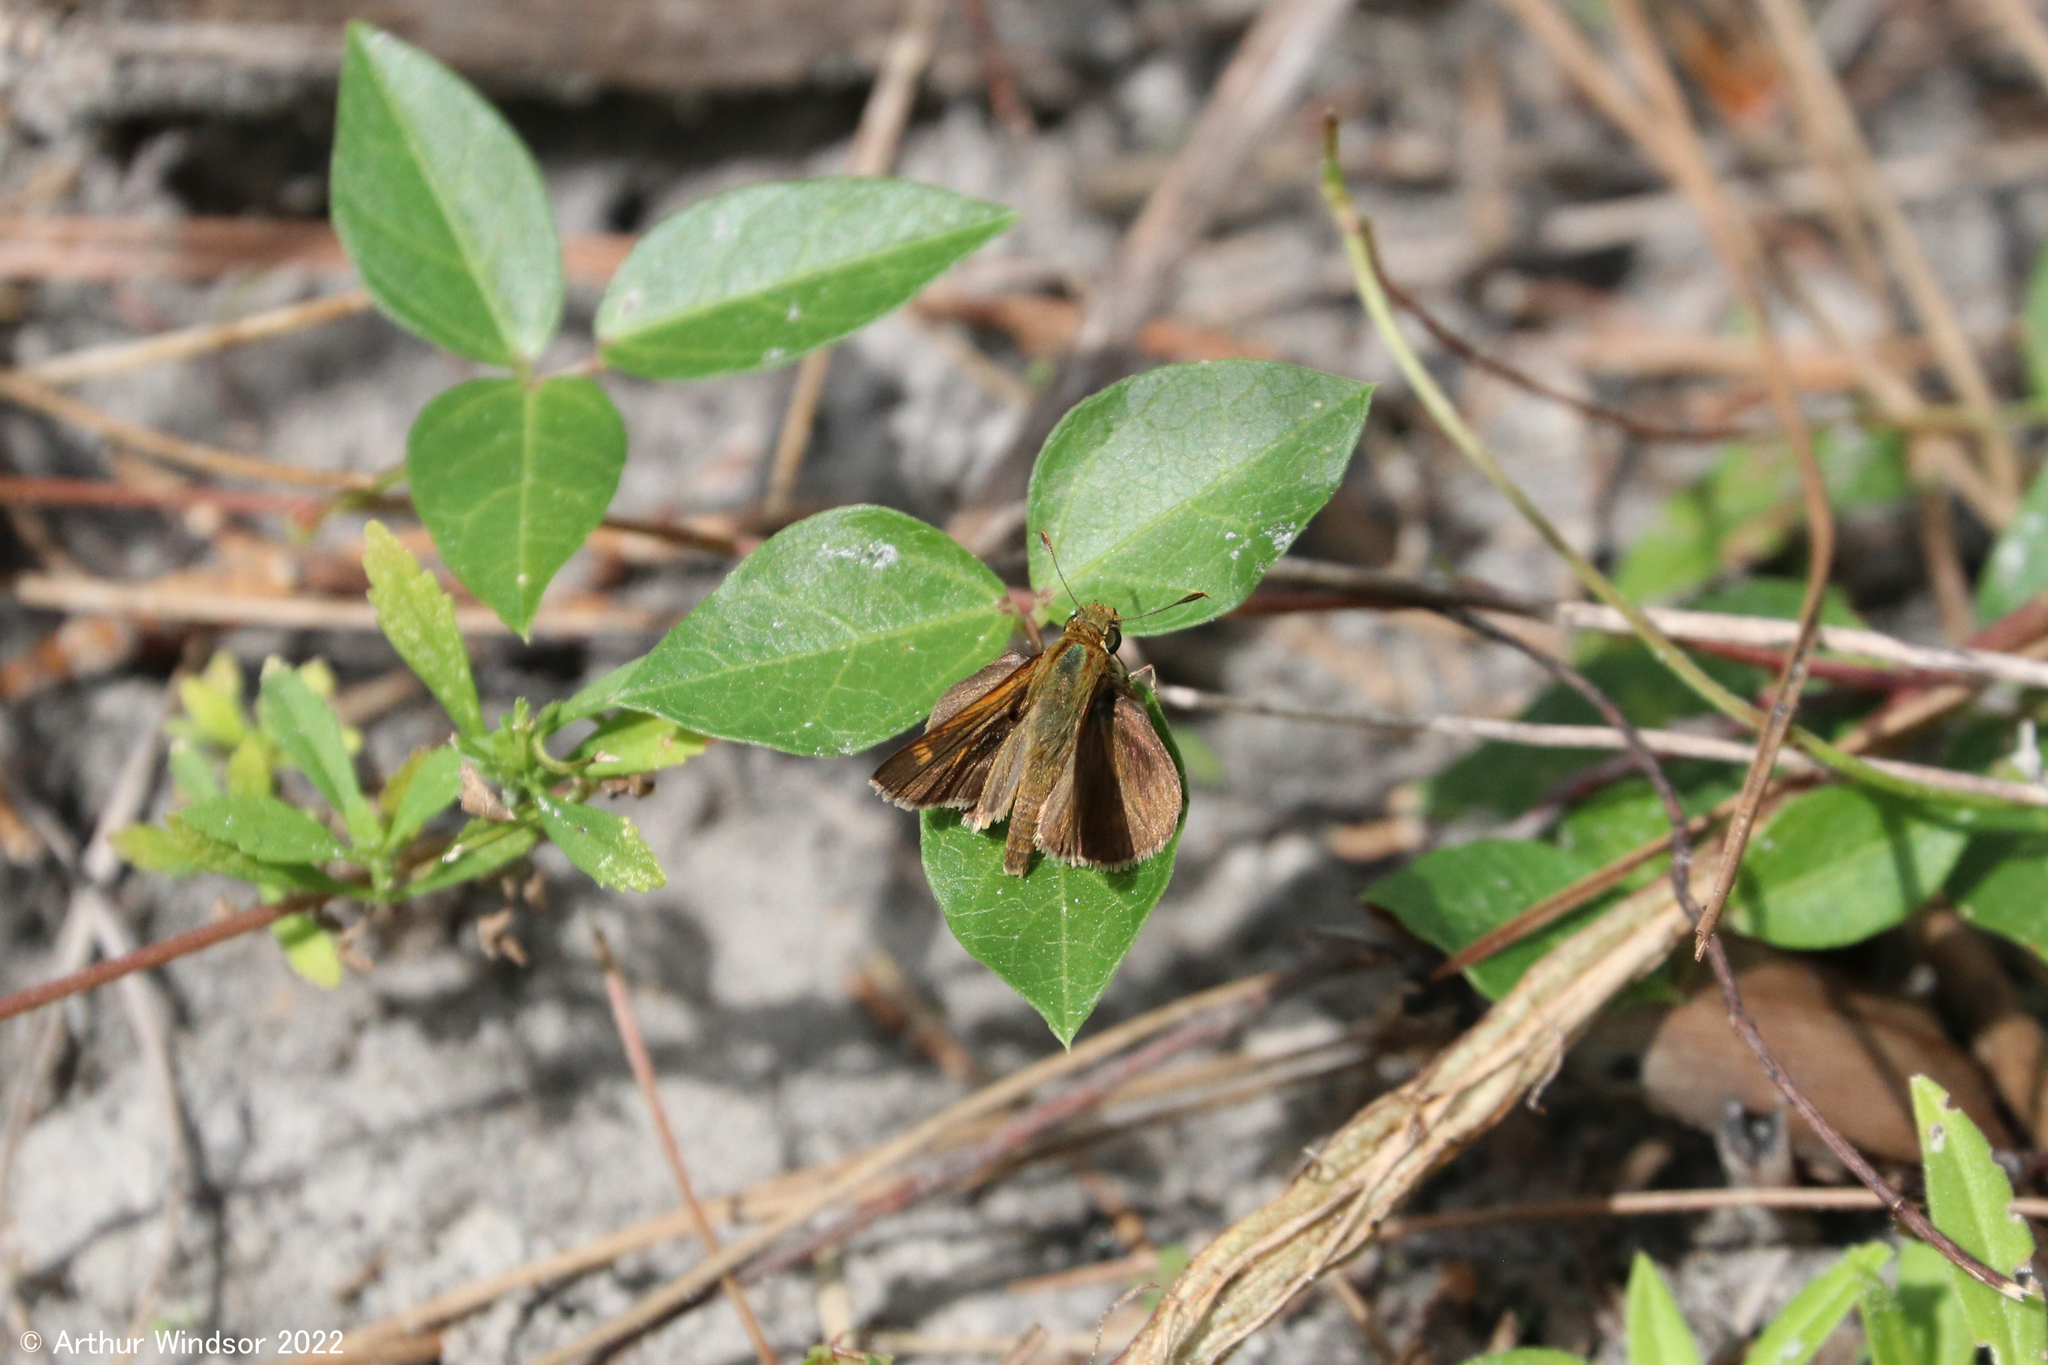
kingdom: Animalia
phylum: Arthropoda
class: Insecta
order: Lepidoptera
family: Hesperiidae
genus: Polites
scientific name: Polites otho
